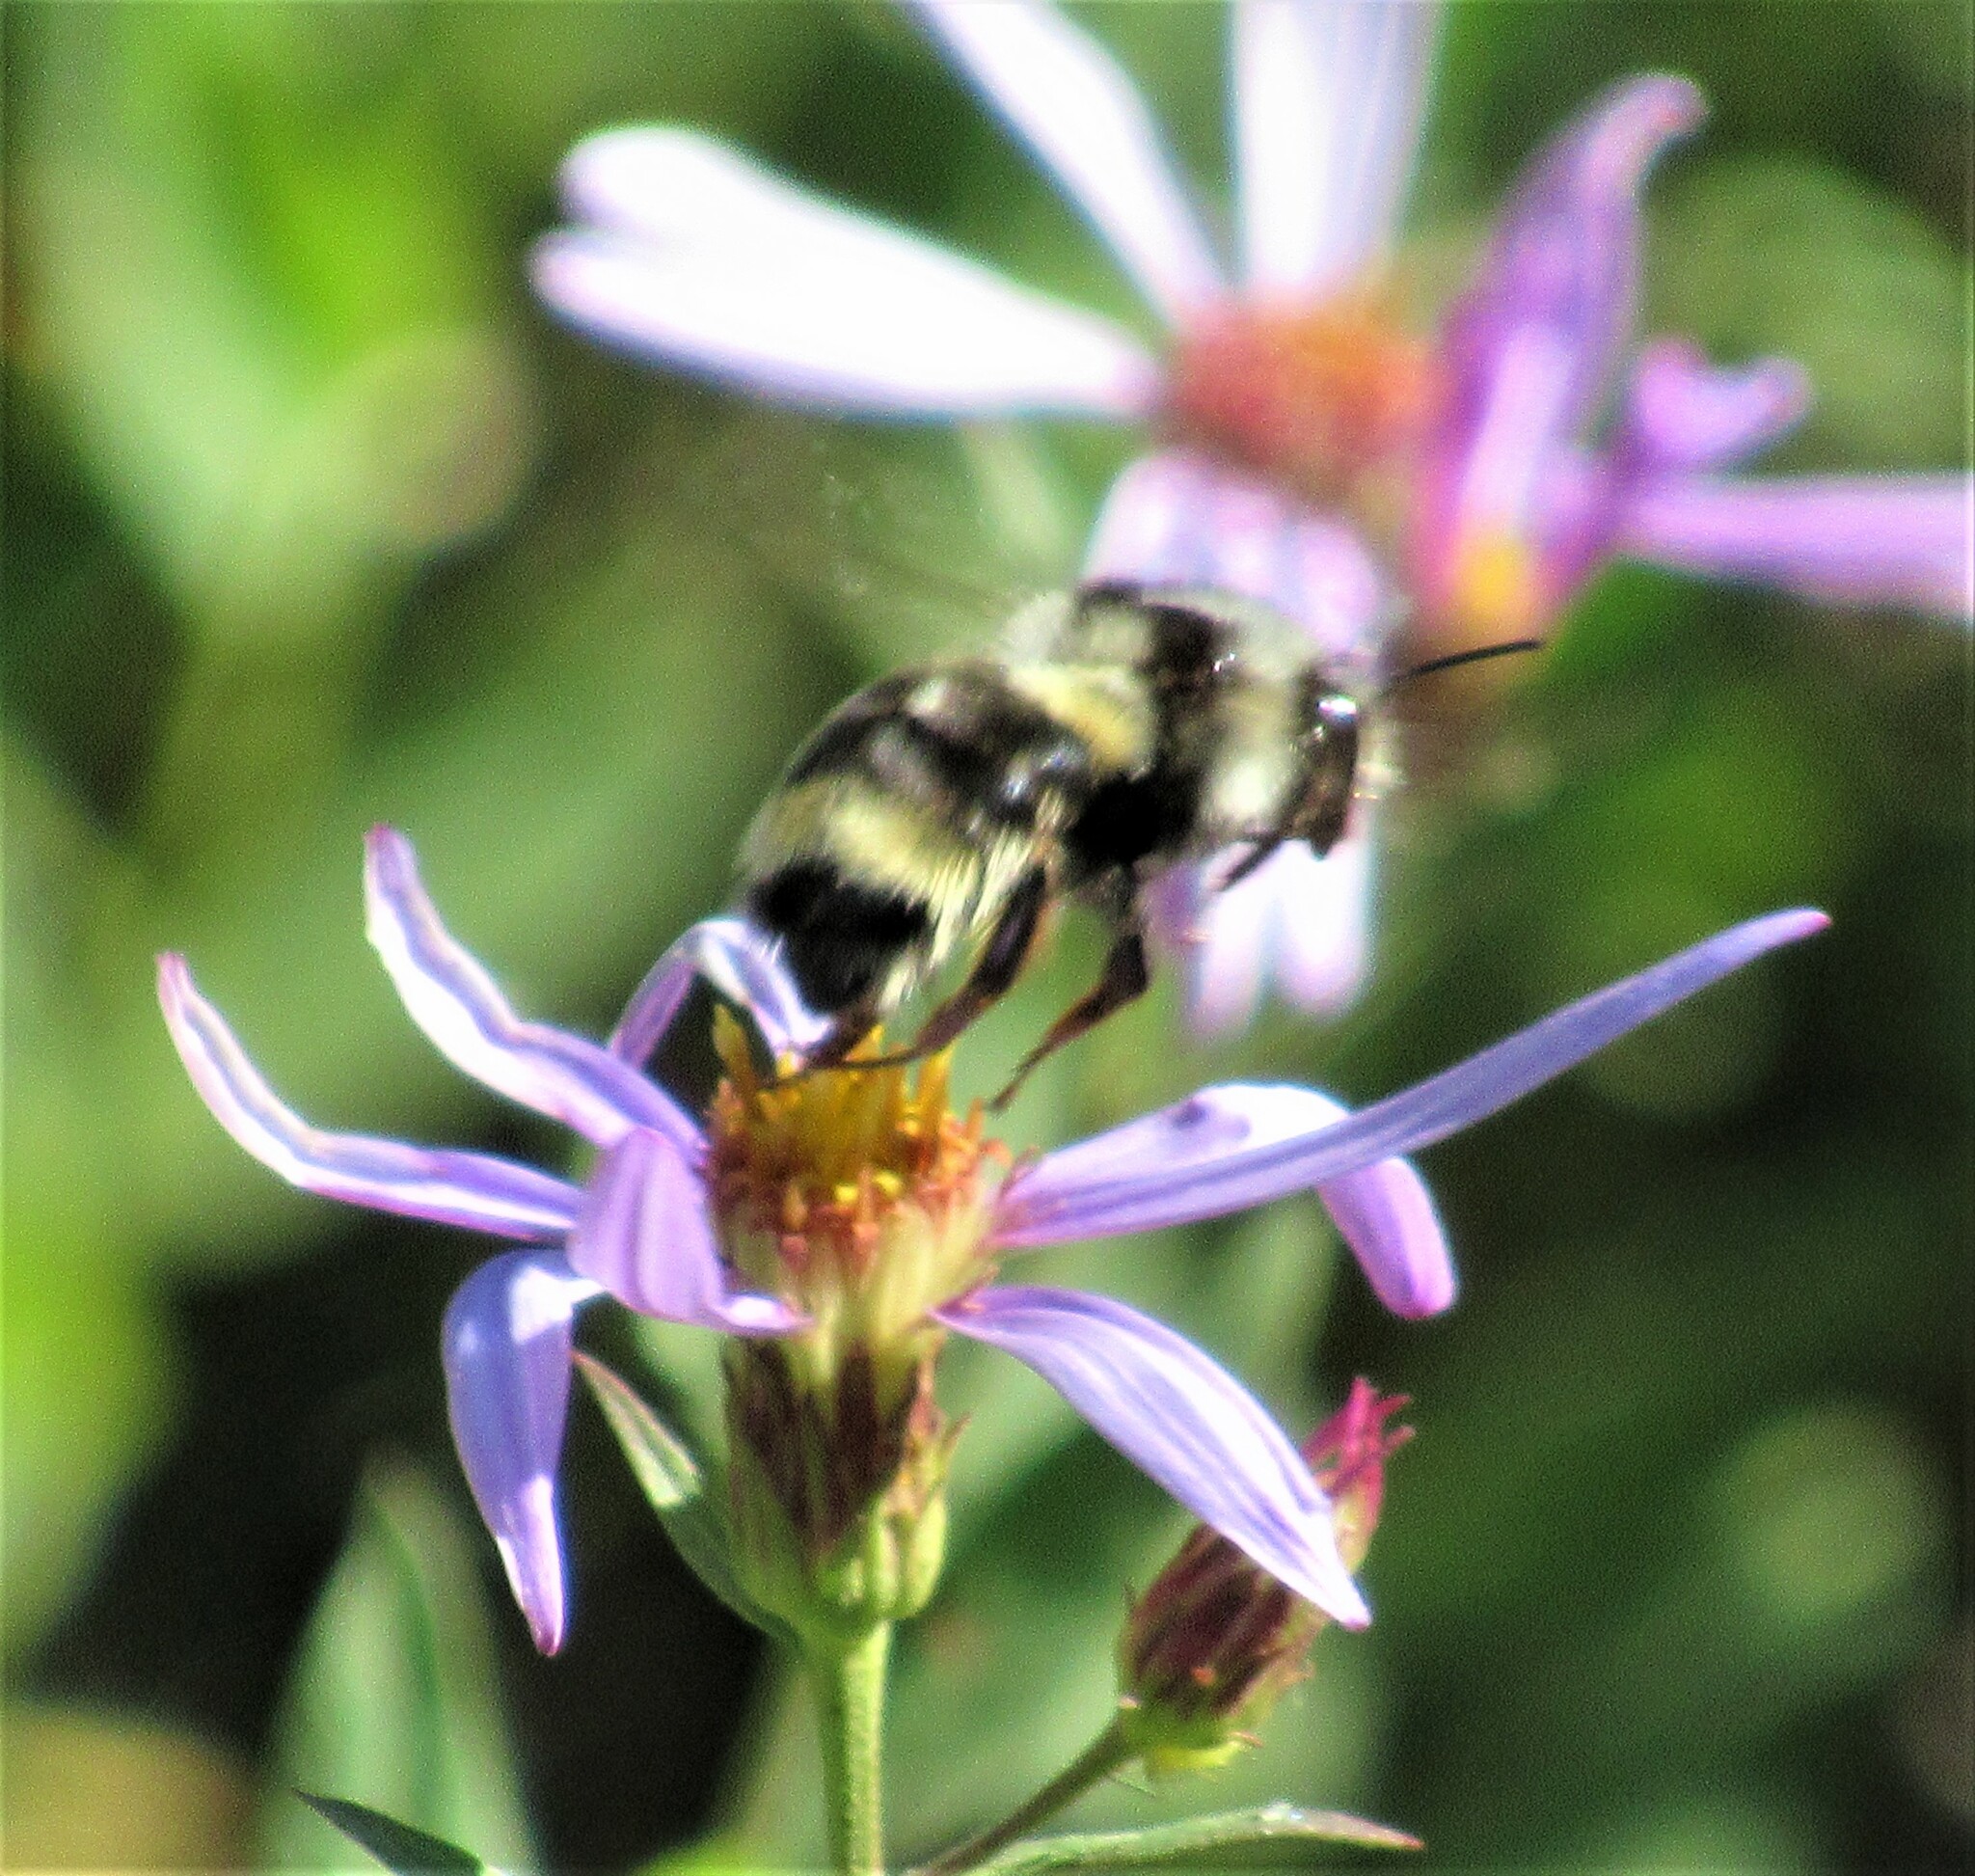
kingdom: Animalia
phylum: Arthropoda
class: Insecta
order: Hymenoptera
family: Apidae
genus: Bombus
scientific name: Bombus vancouverensis
